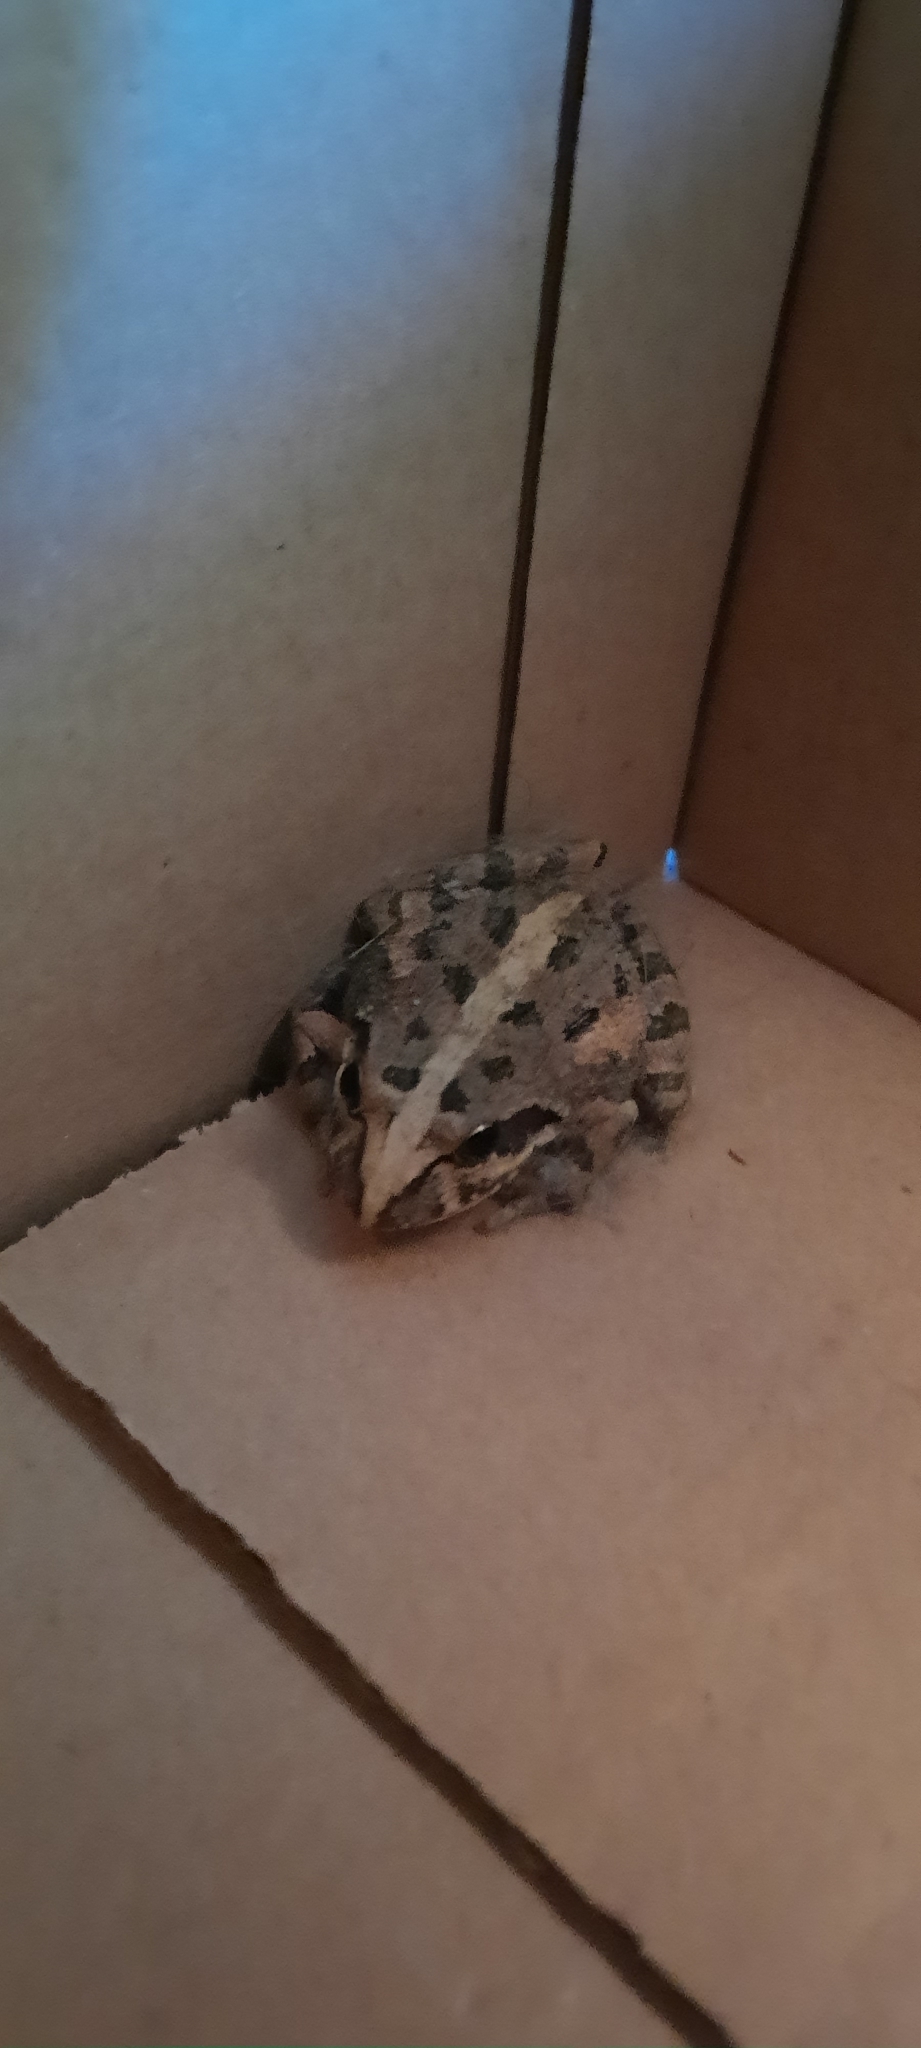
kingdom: Animalia
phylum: Chordata
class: Amphibia
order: Anura
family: Pyxicephalidae
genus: Strongylopus
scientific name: Strongylopus grayii
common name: Gray's stream frog
